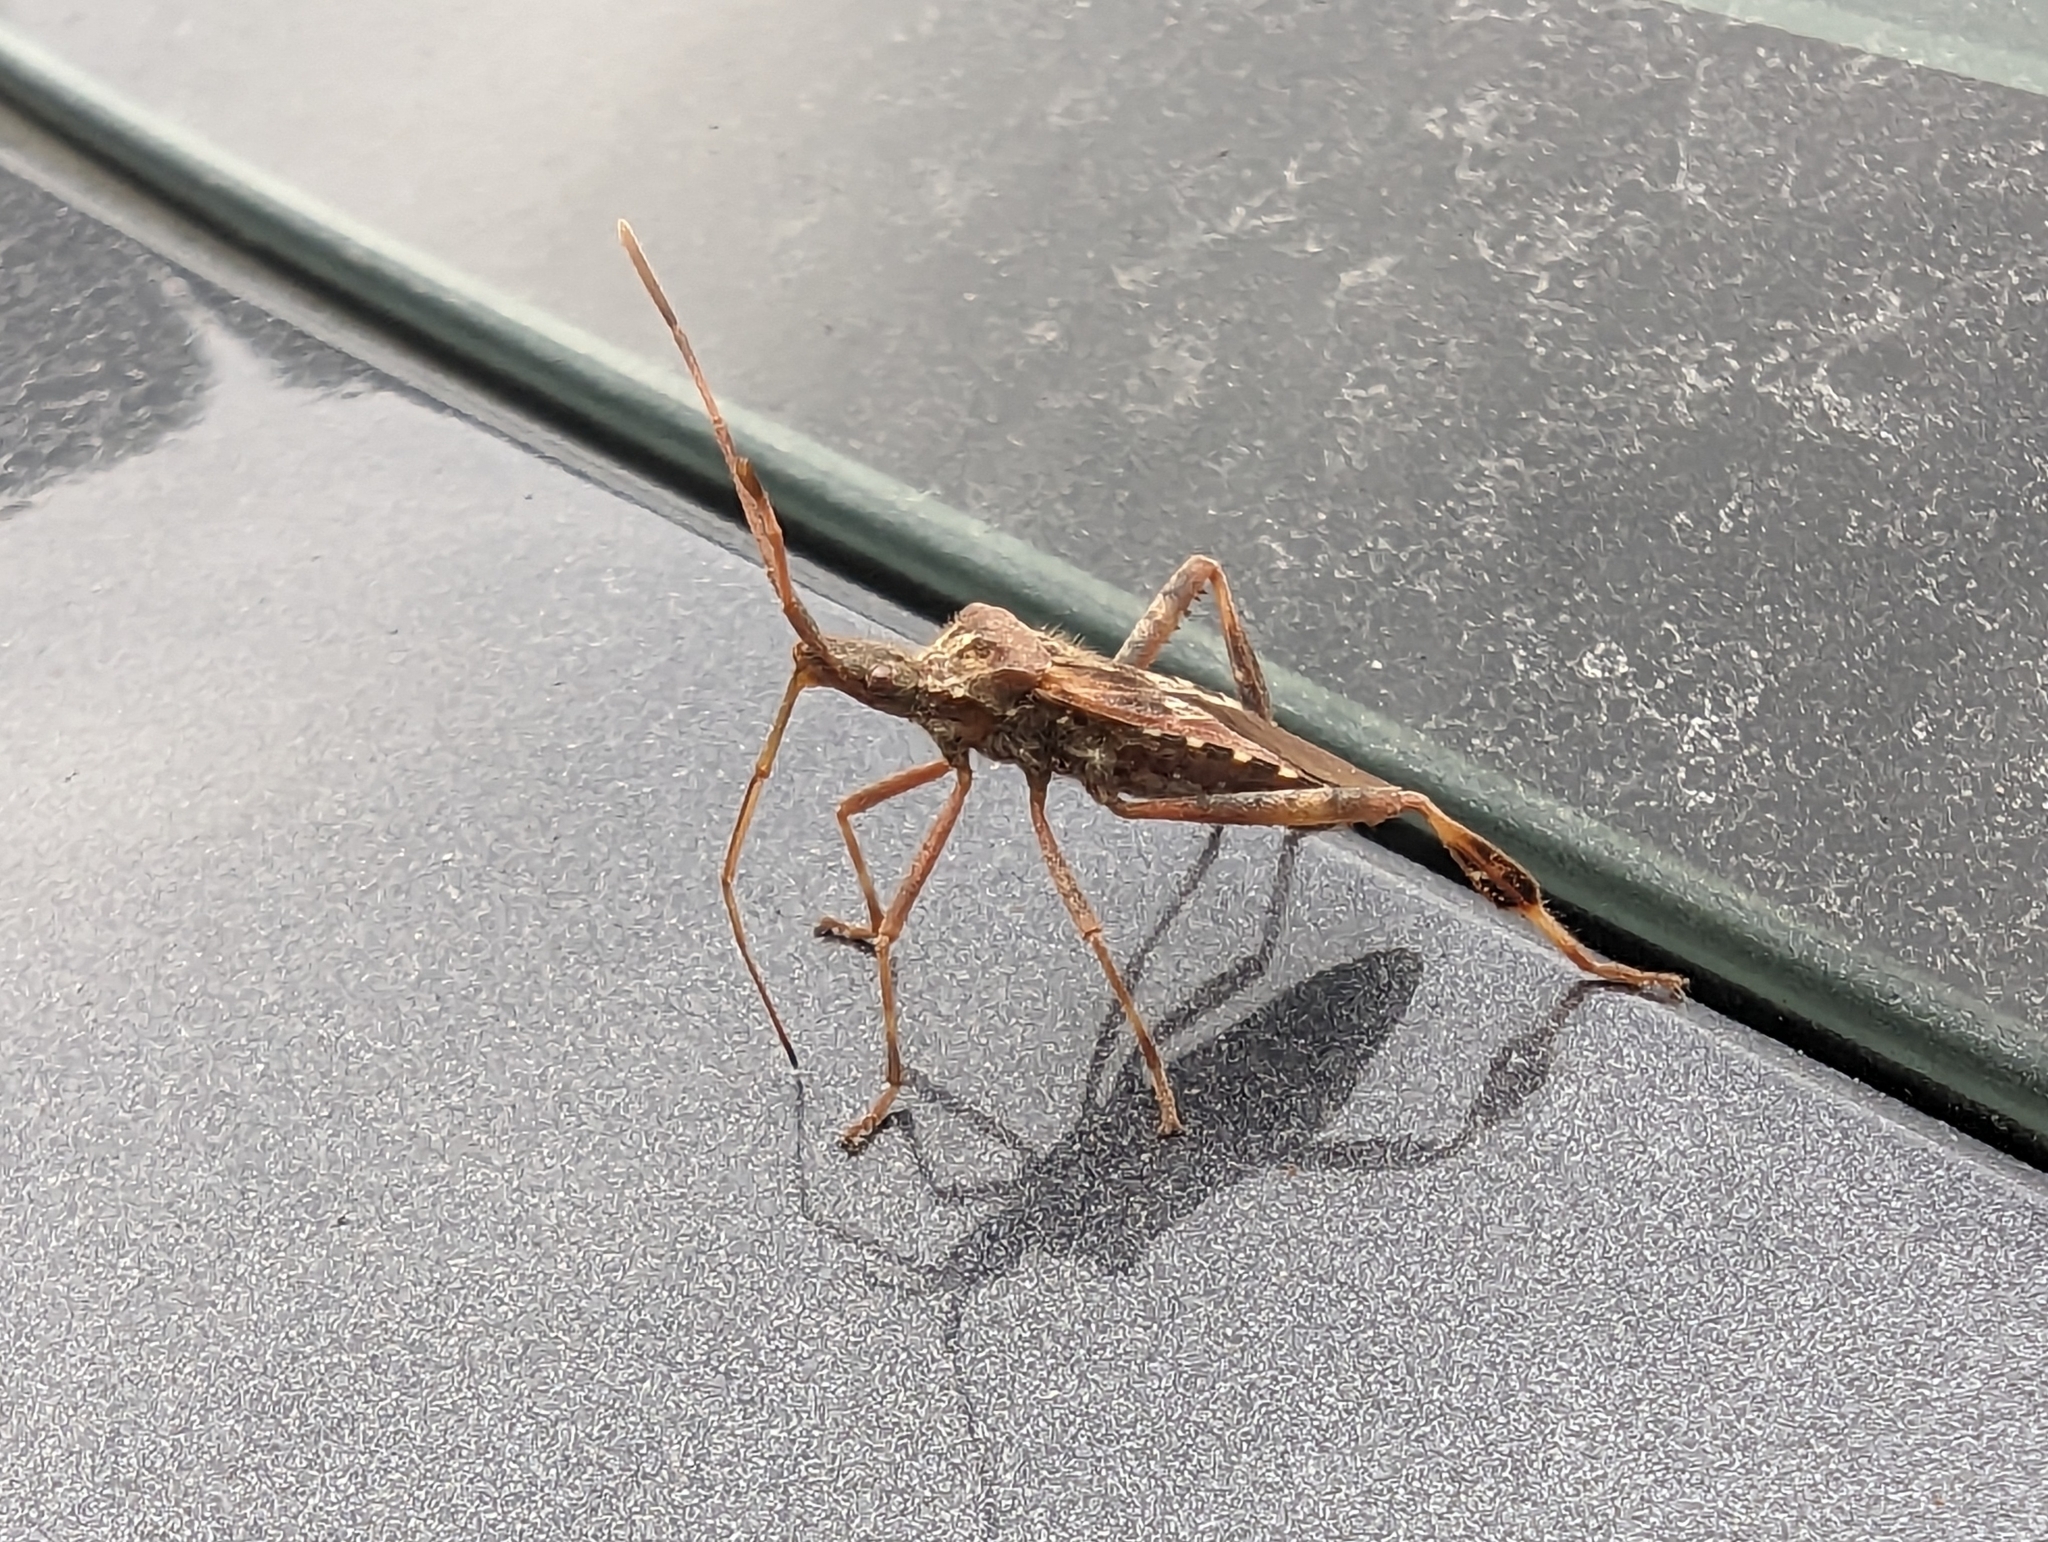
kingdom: Animalia
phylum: Arthropoda
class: Insecta
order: Hemiptera
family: Coreidae
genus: Leptoglossus
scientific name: Leptoglossus occidentalis
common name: Western conifer-seed bug
